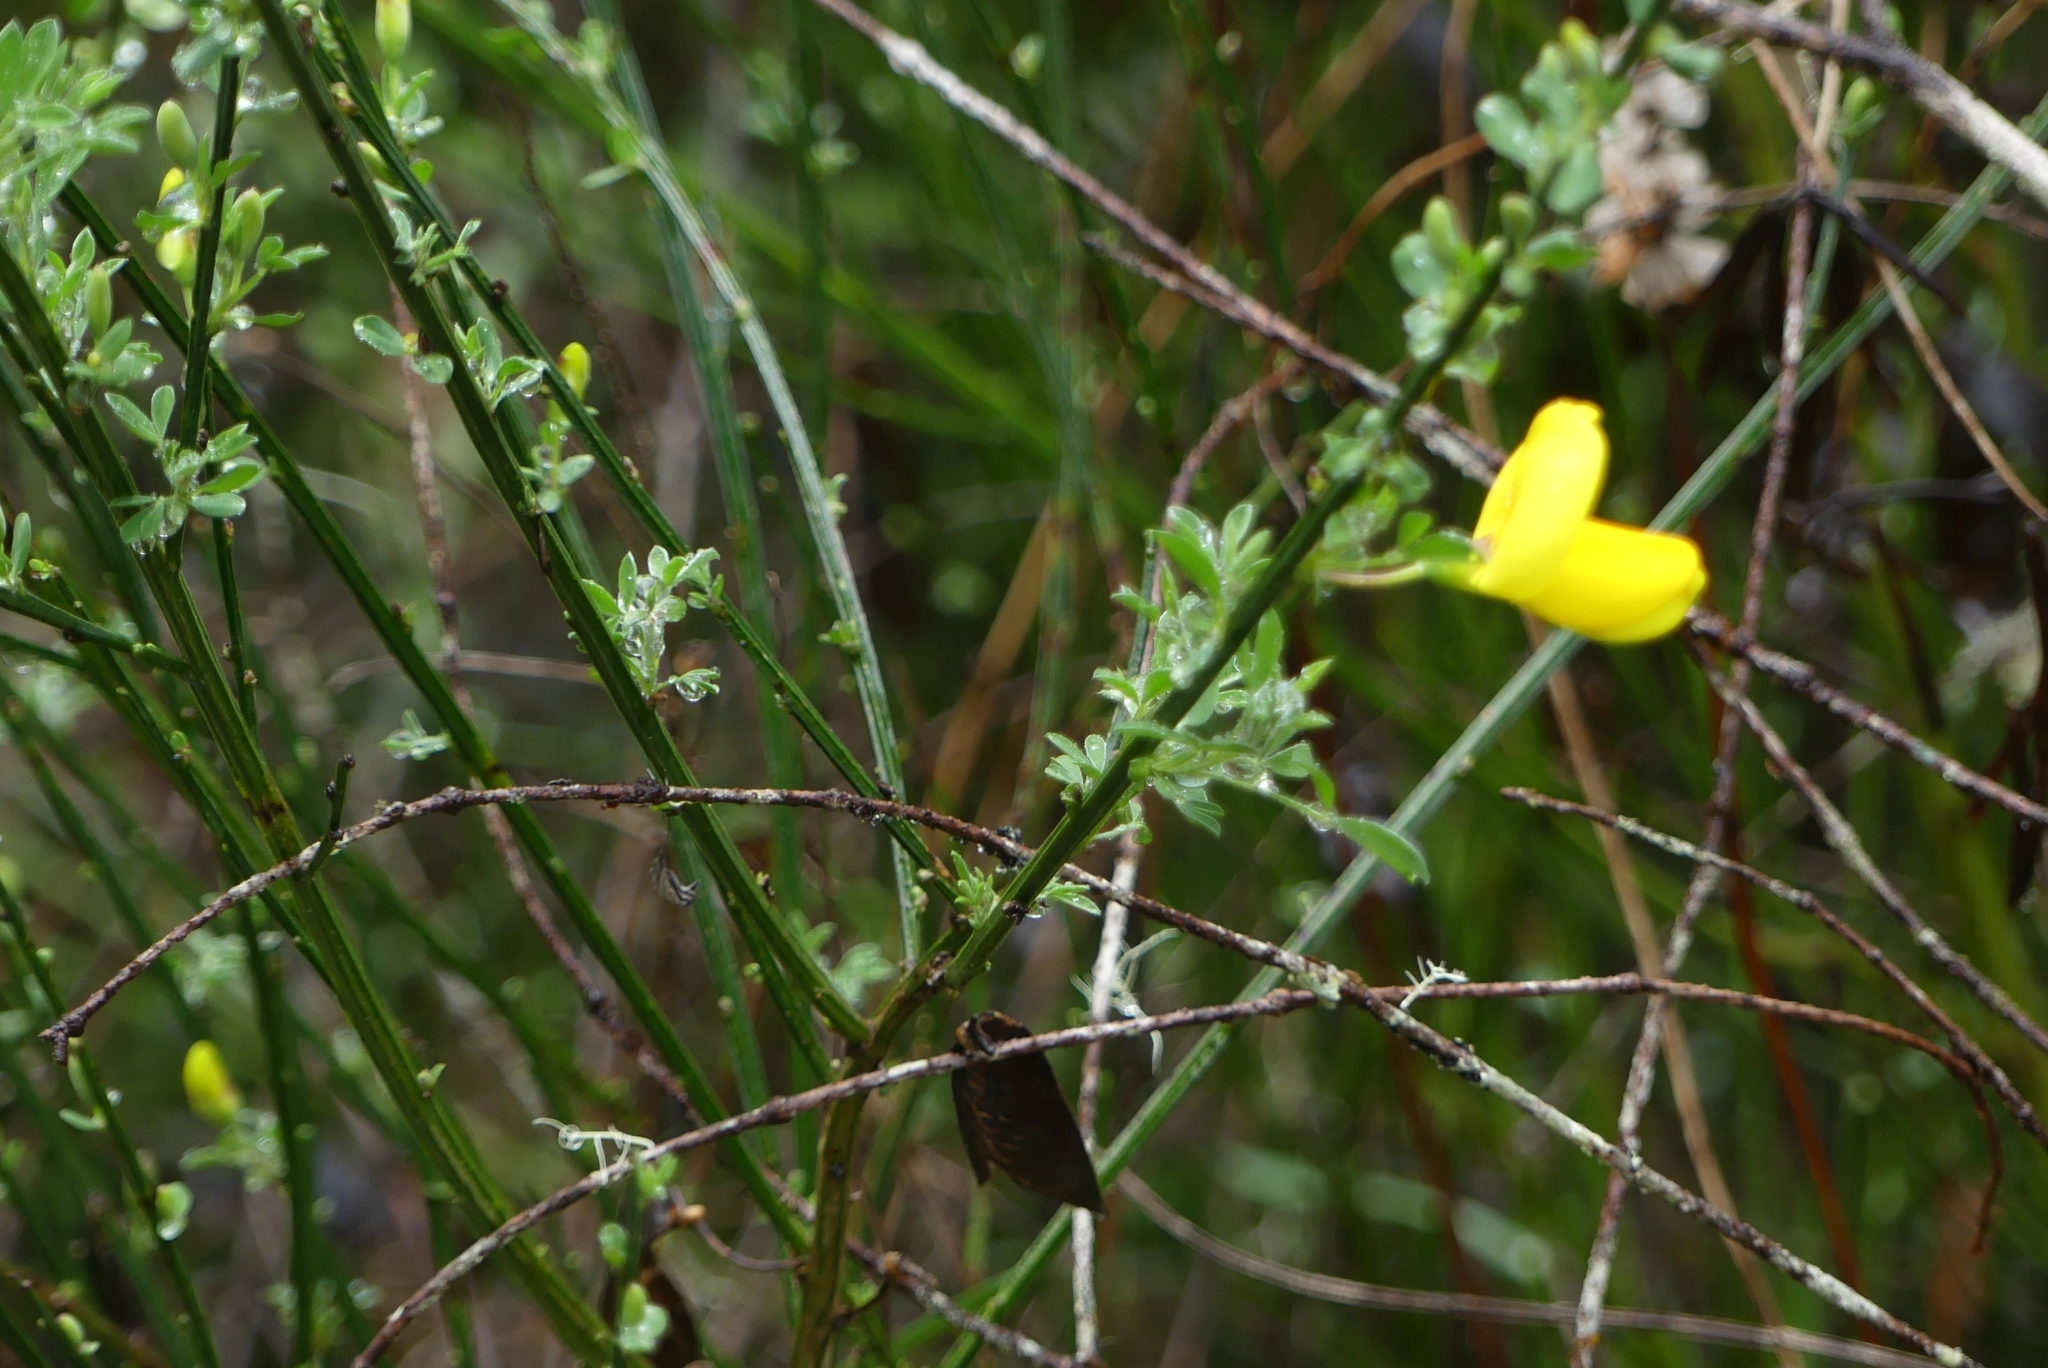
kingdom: Plantae
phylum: Tracheophyta
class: Magnoliopsida
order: Fabales
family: Fabaceae
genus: Cytisus
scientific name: Cytisus scoparius
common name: Scotch broom
